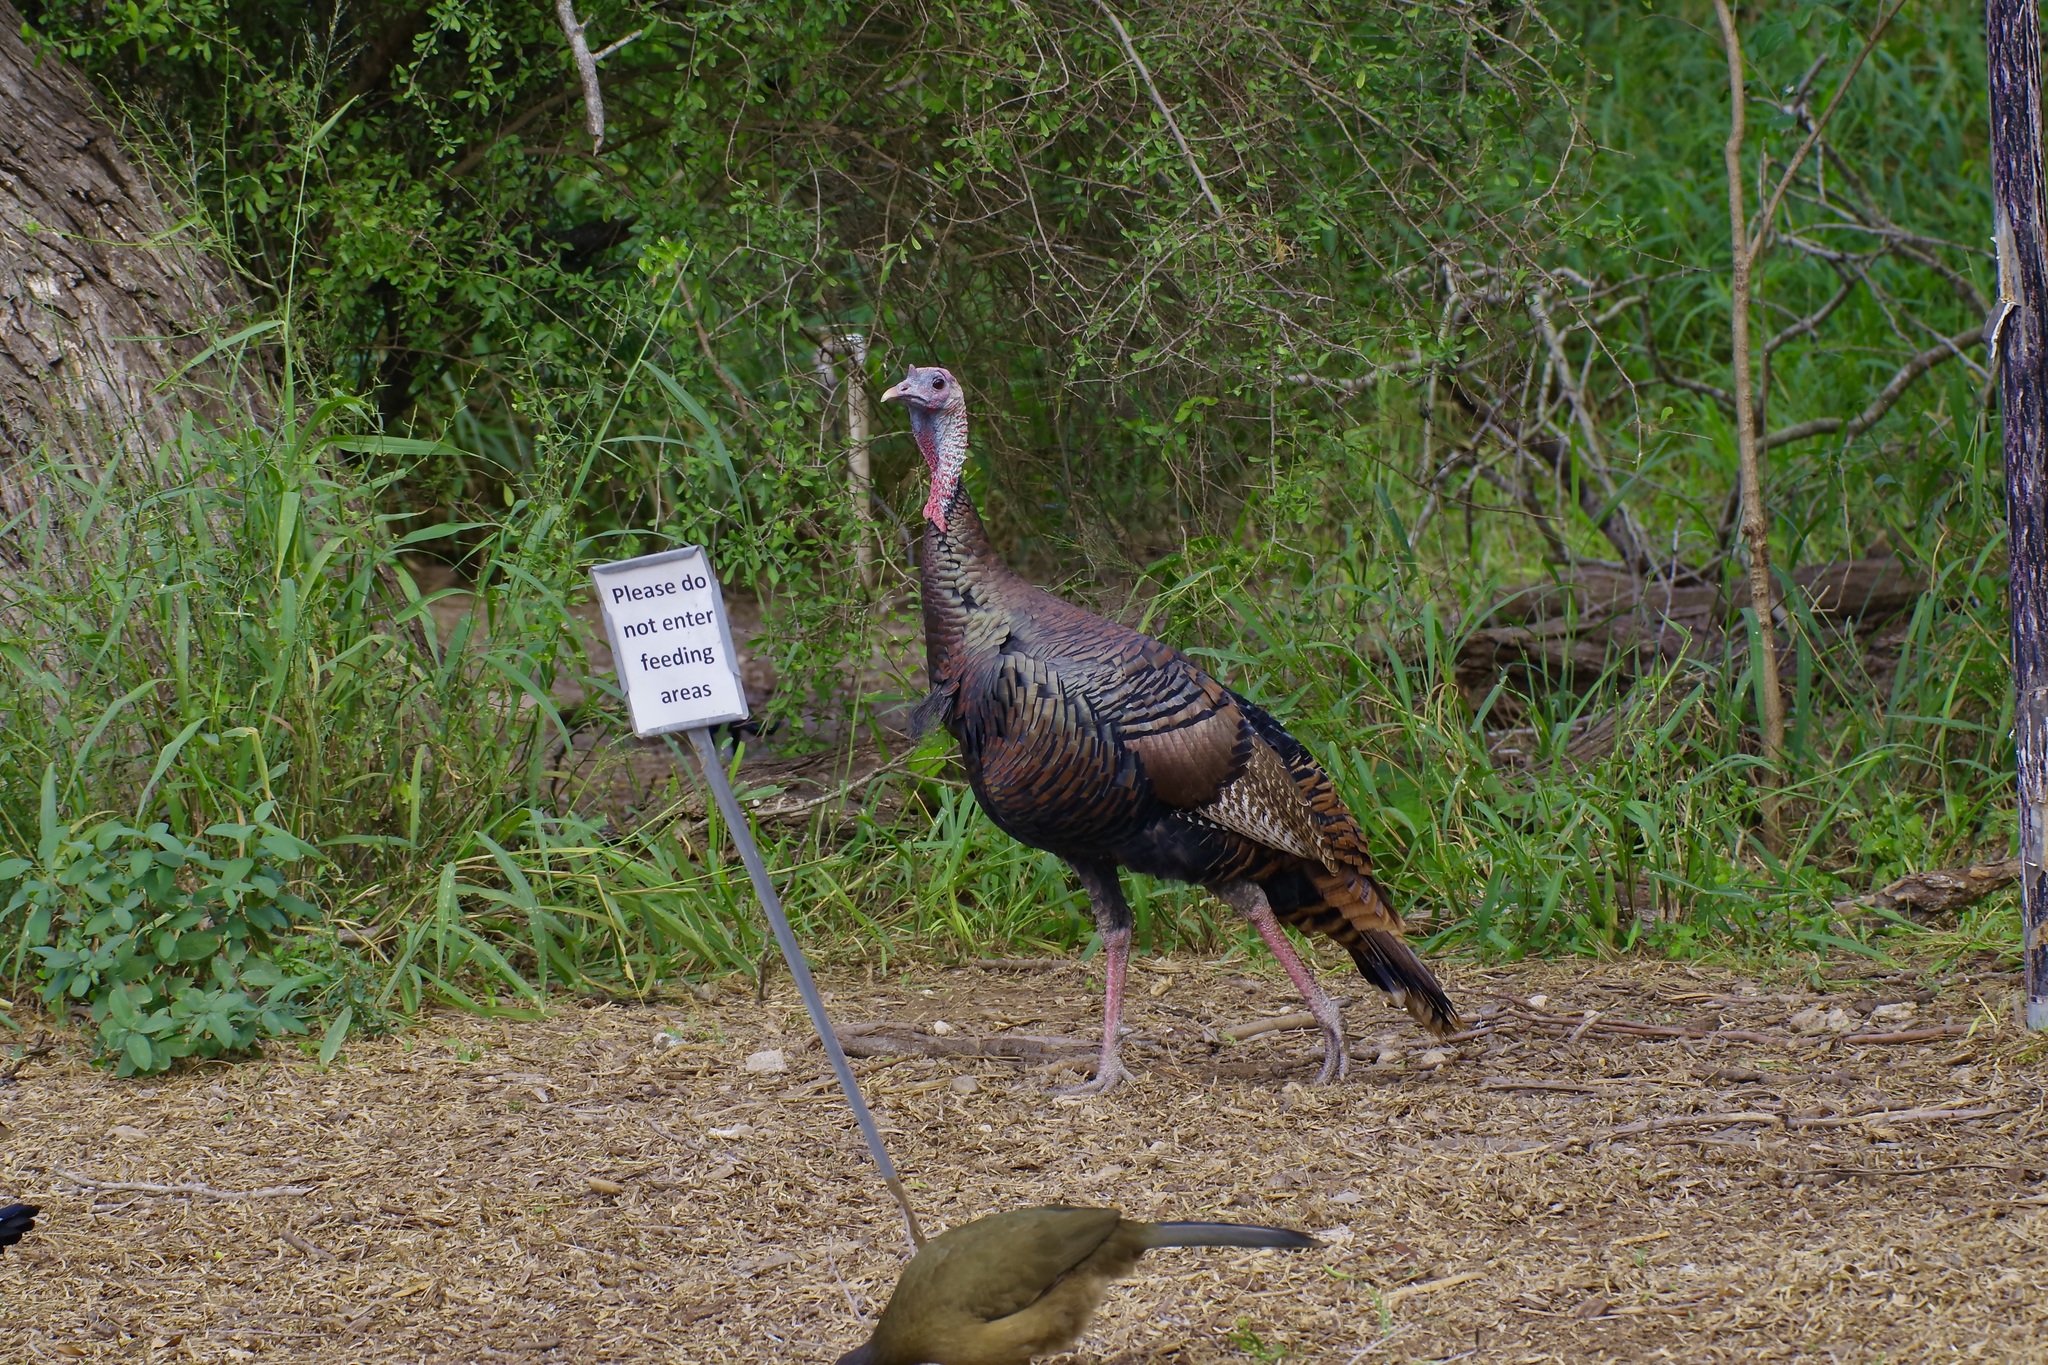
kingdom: Animalia
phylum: Chordata
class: Aves
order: Galliformes
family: Phasianidae
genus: Meleagris
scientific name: Meleagris gallopavo
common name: Wild turkey
